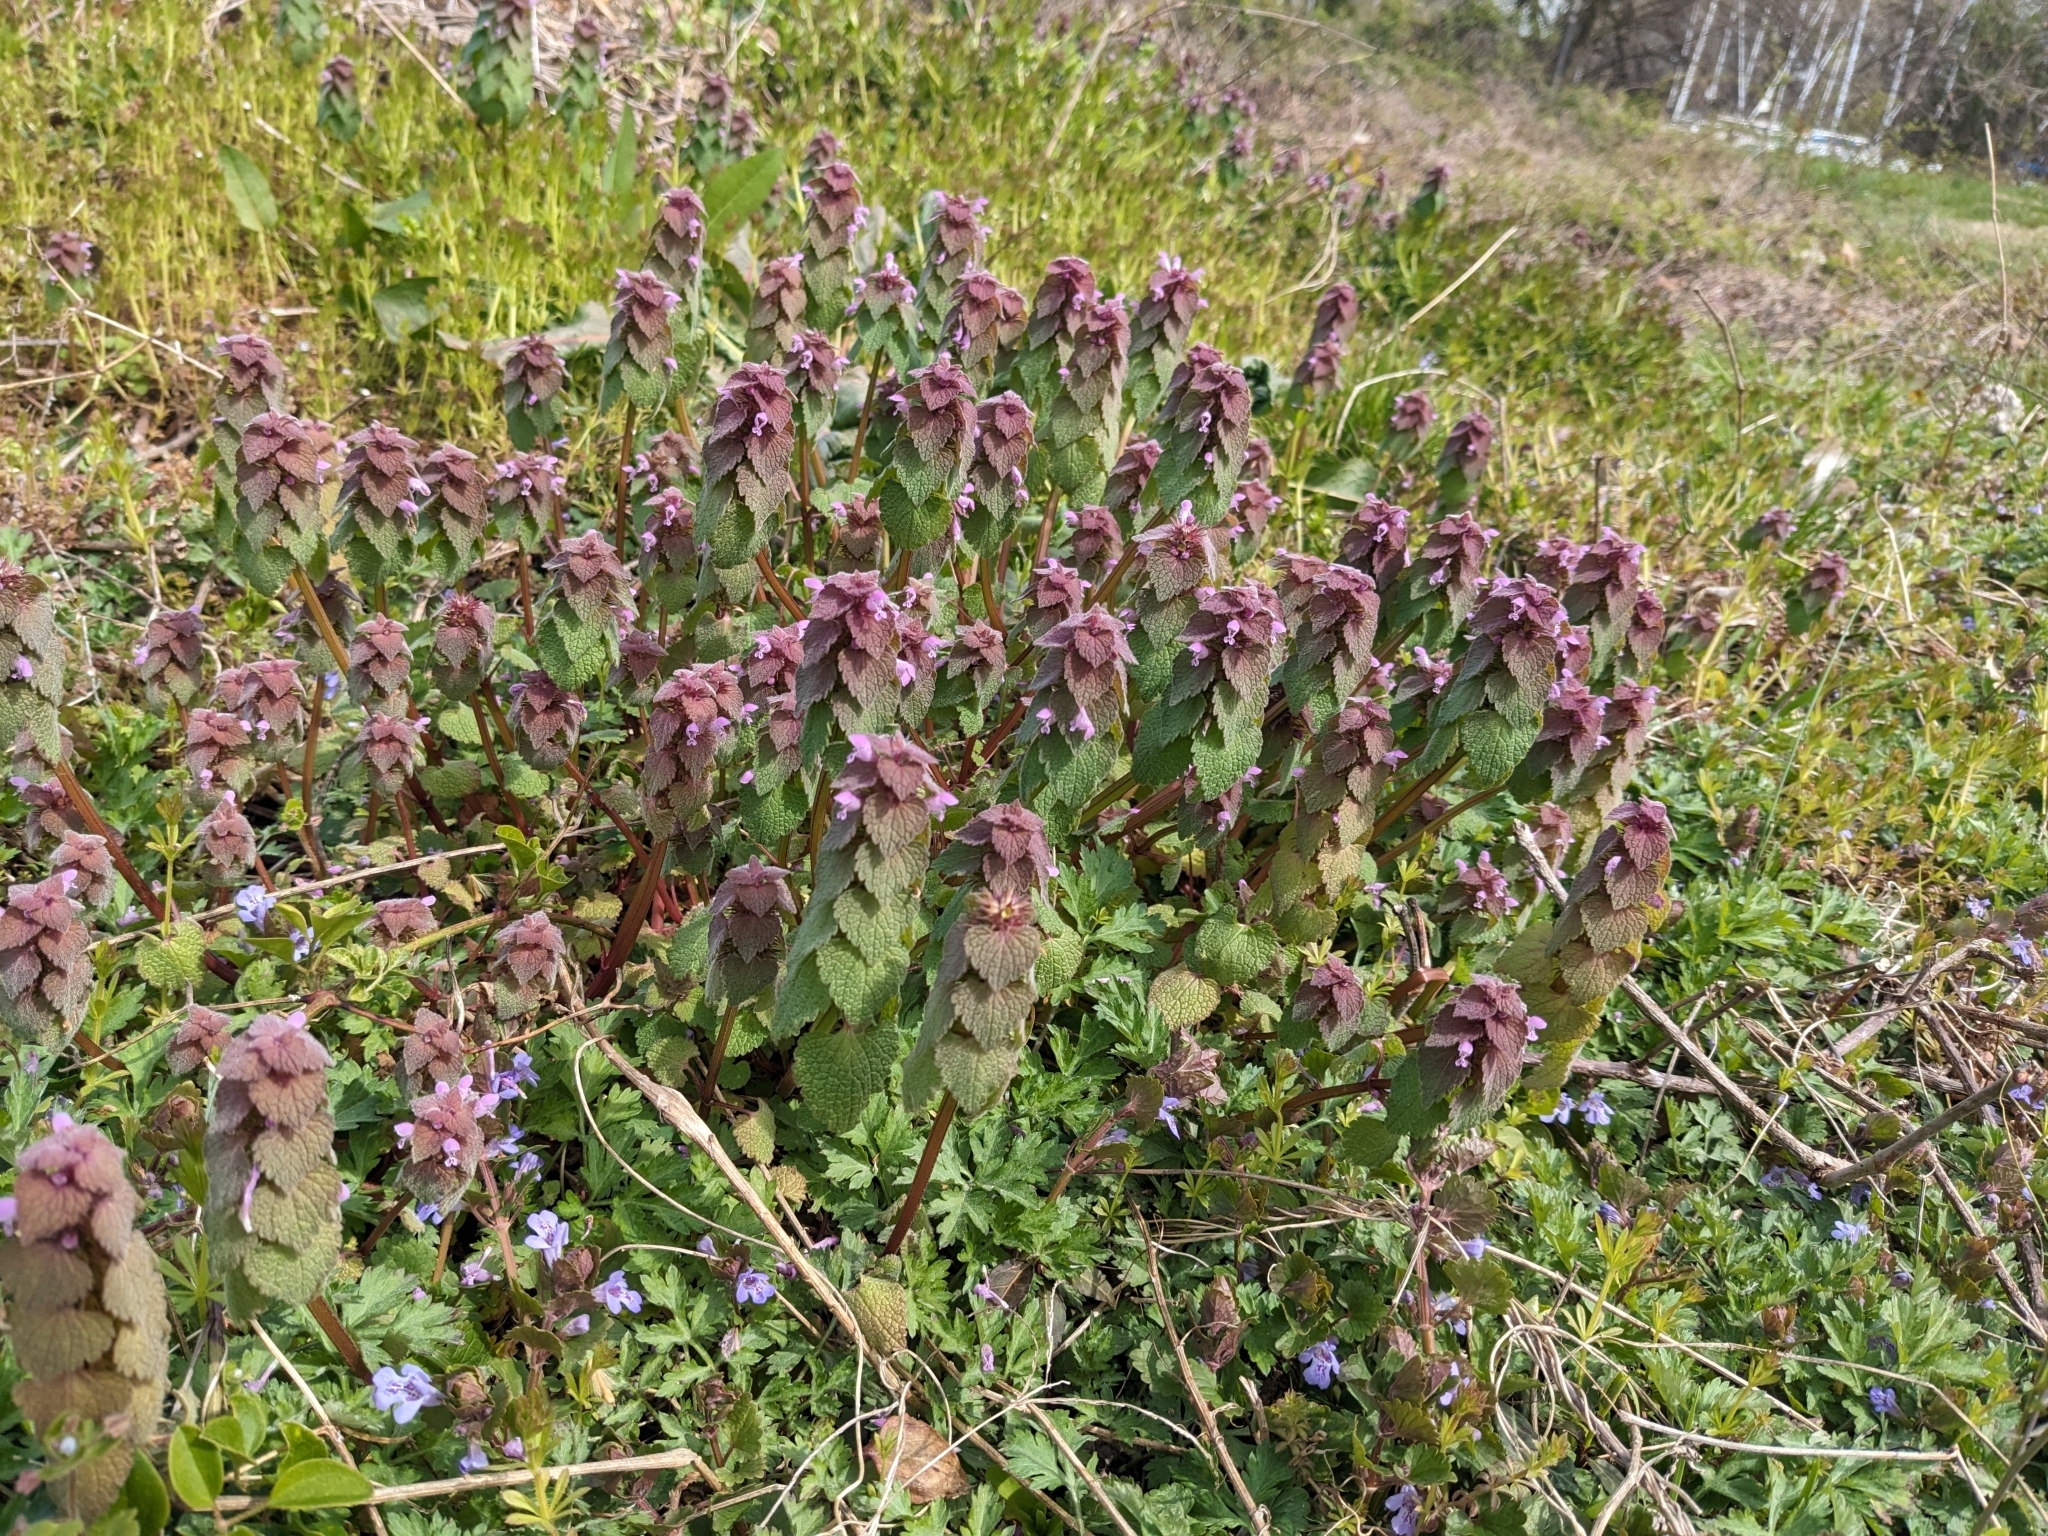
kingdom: Plantae
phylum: Tracheophyta
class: Magnoliopsida
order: Lamiales
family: Lamiaceae
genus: Lamium
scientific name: Lamium purpureum
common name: Red dead-nettle
